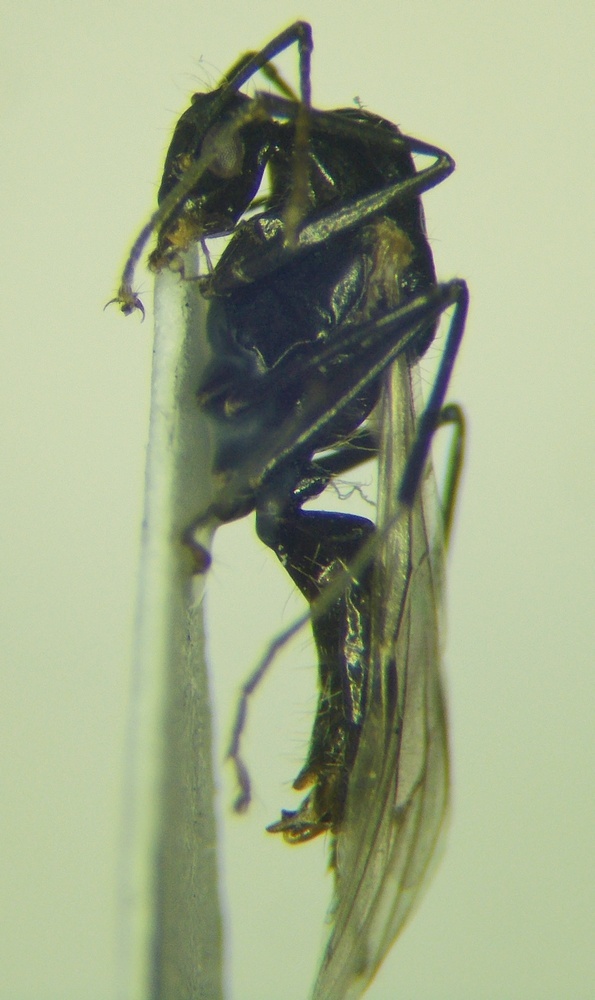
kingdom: Animalia
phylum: Arthropoda
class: Insecta
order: Hymenoptera
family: Formicidae
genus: Camponotus
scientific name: Camponotus piceus
